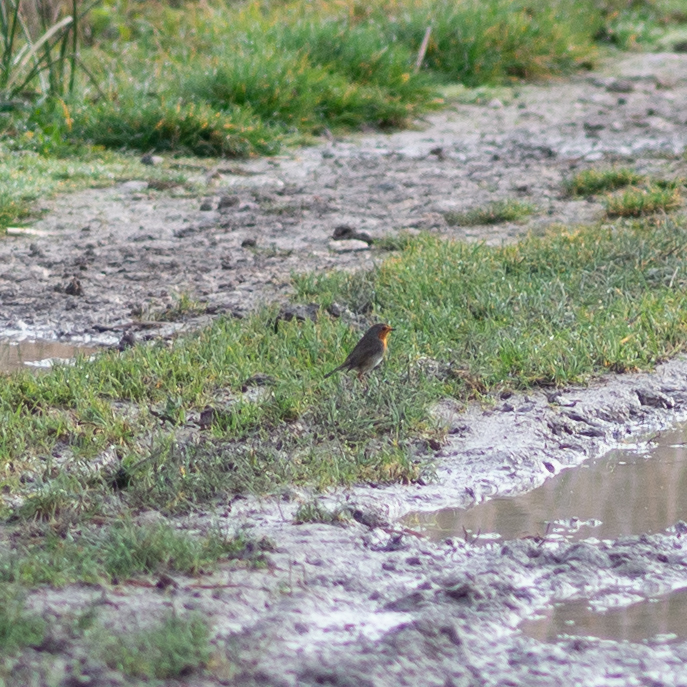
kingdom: Animalia
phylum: Chordata
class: Aves
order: Passeriformes
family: Muscicapidae
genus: Erithacus
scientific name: Erithacus rubecula
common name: European robin
